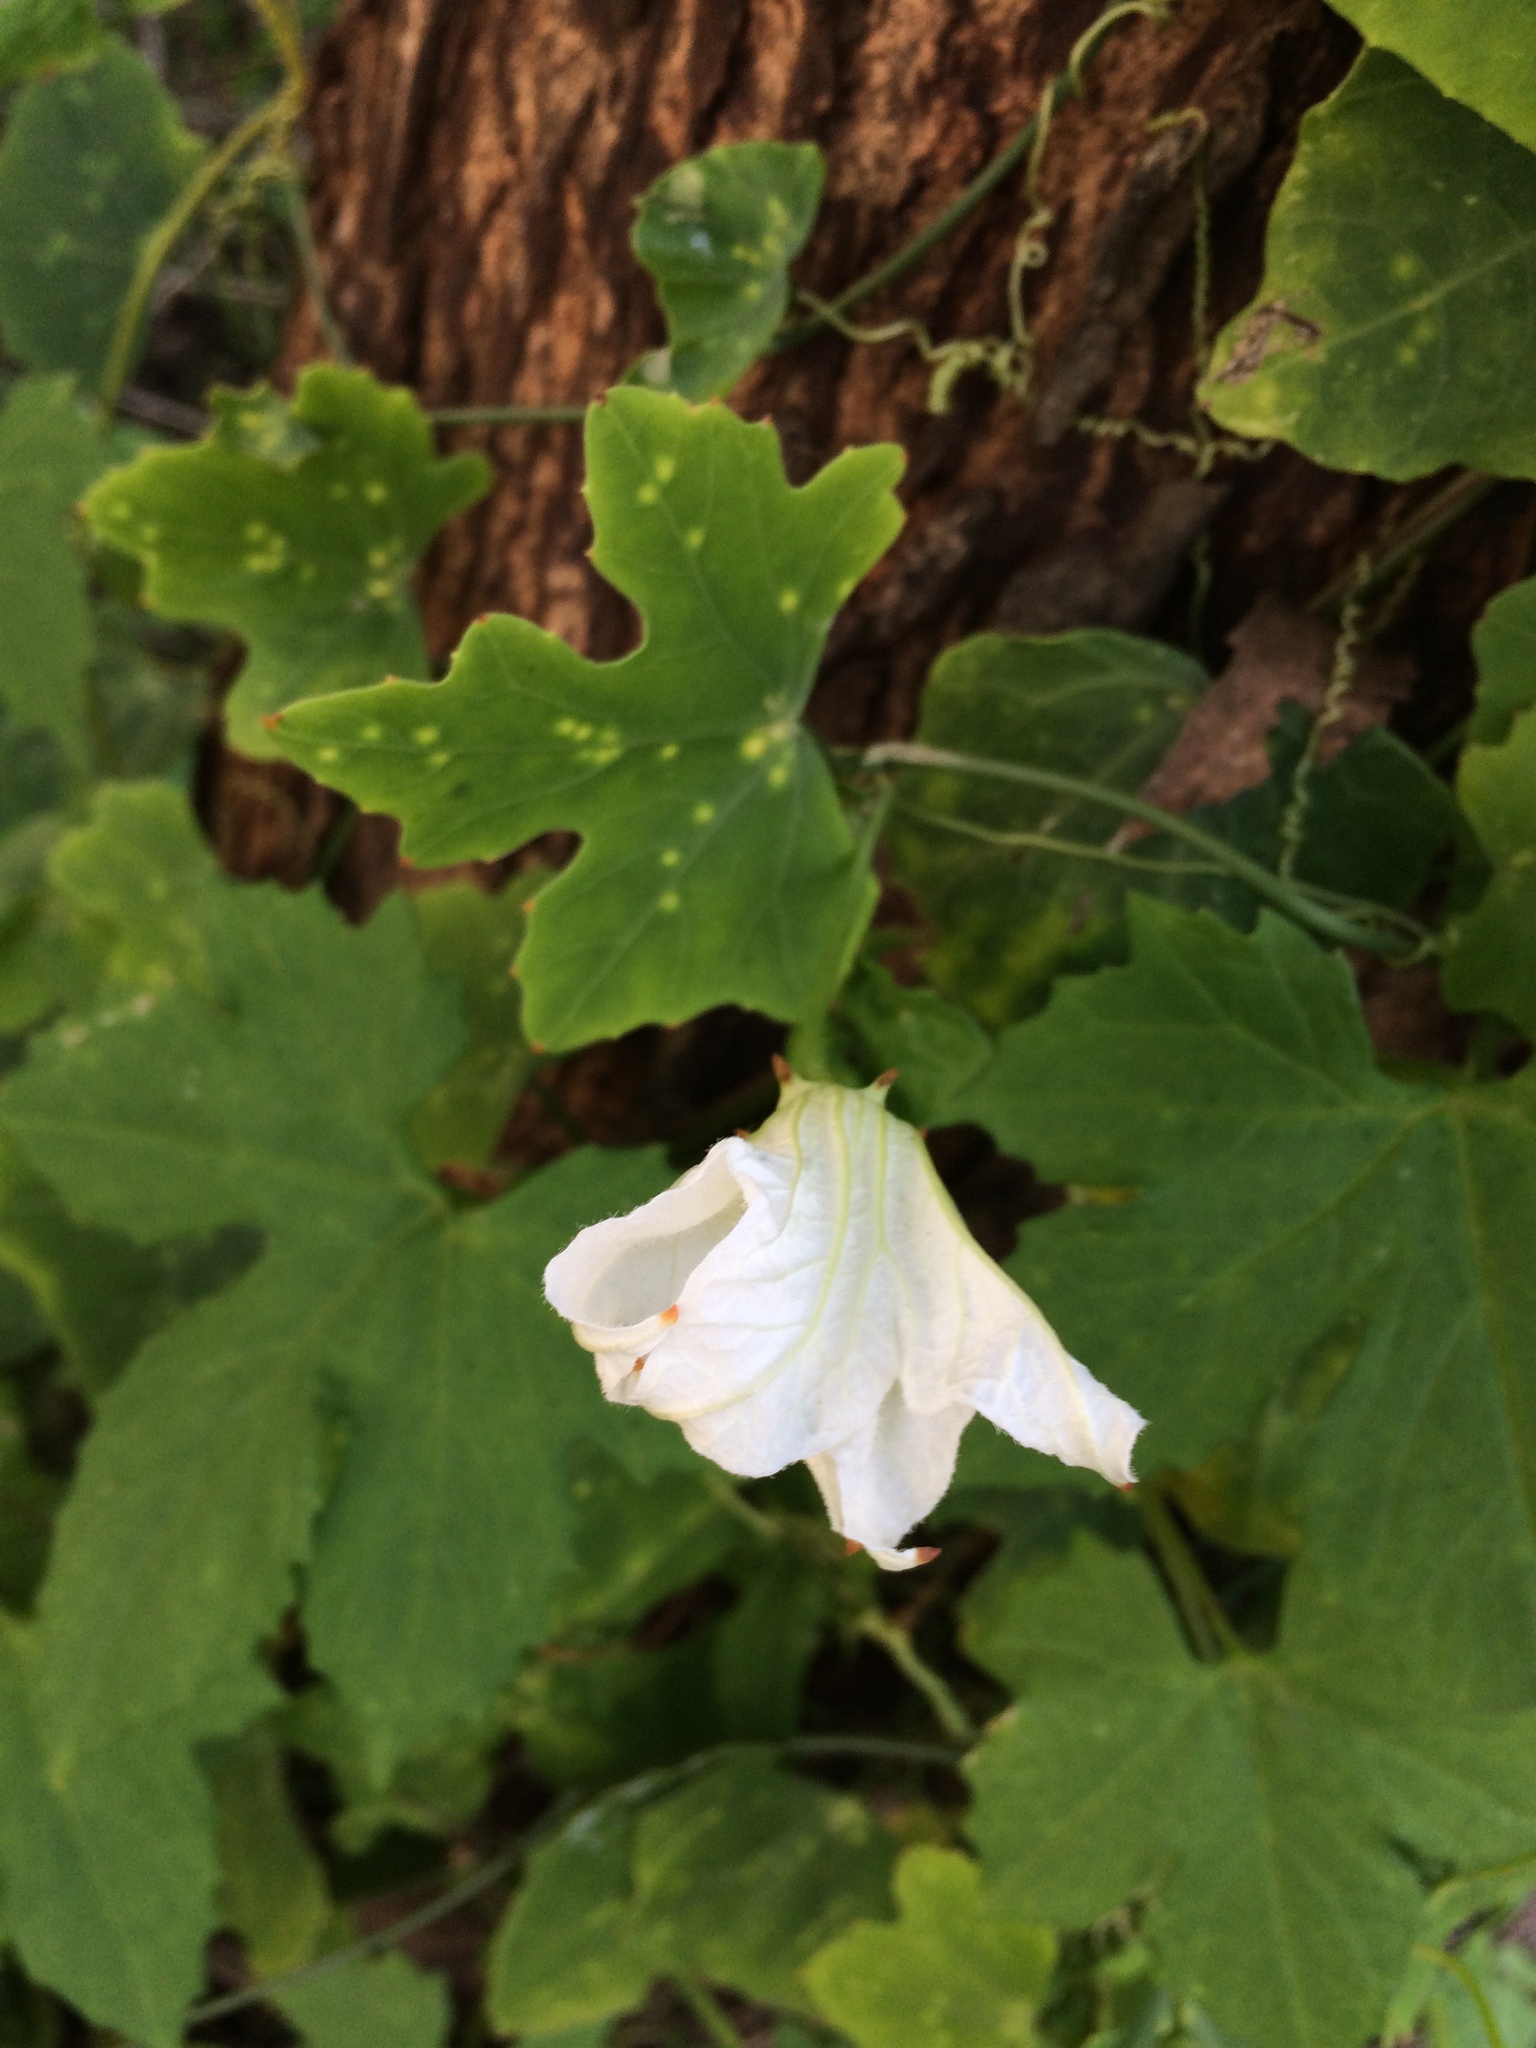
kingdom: Plantae
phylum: Tracheophyta
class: Magnoliopsida
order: Cucurbitales
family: Cucurbitaceae
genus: Coccinia
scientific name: Coccinia grandis
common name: Ivy gourd
